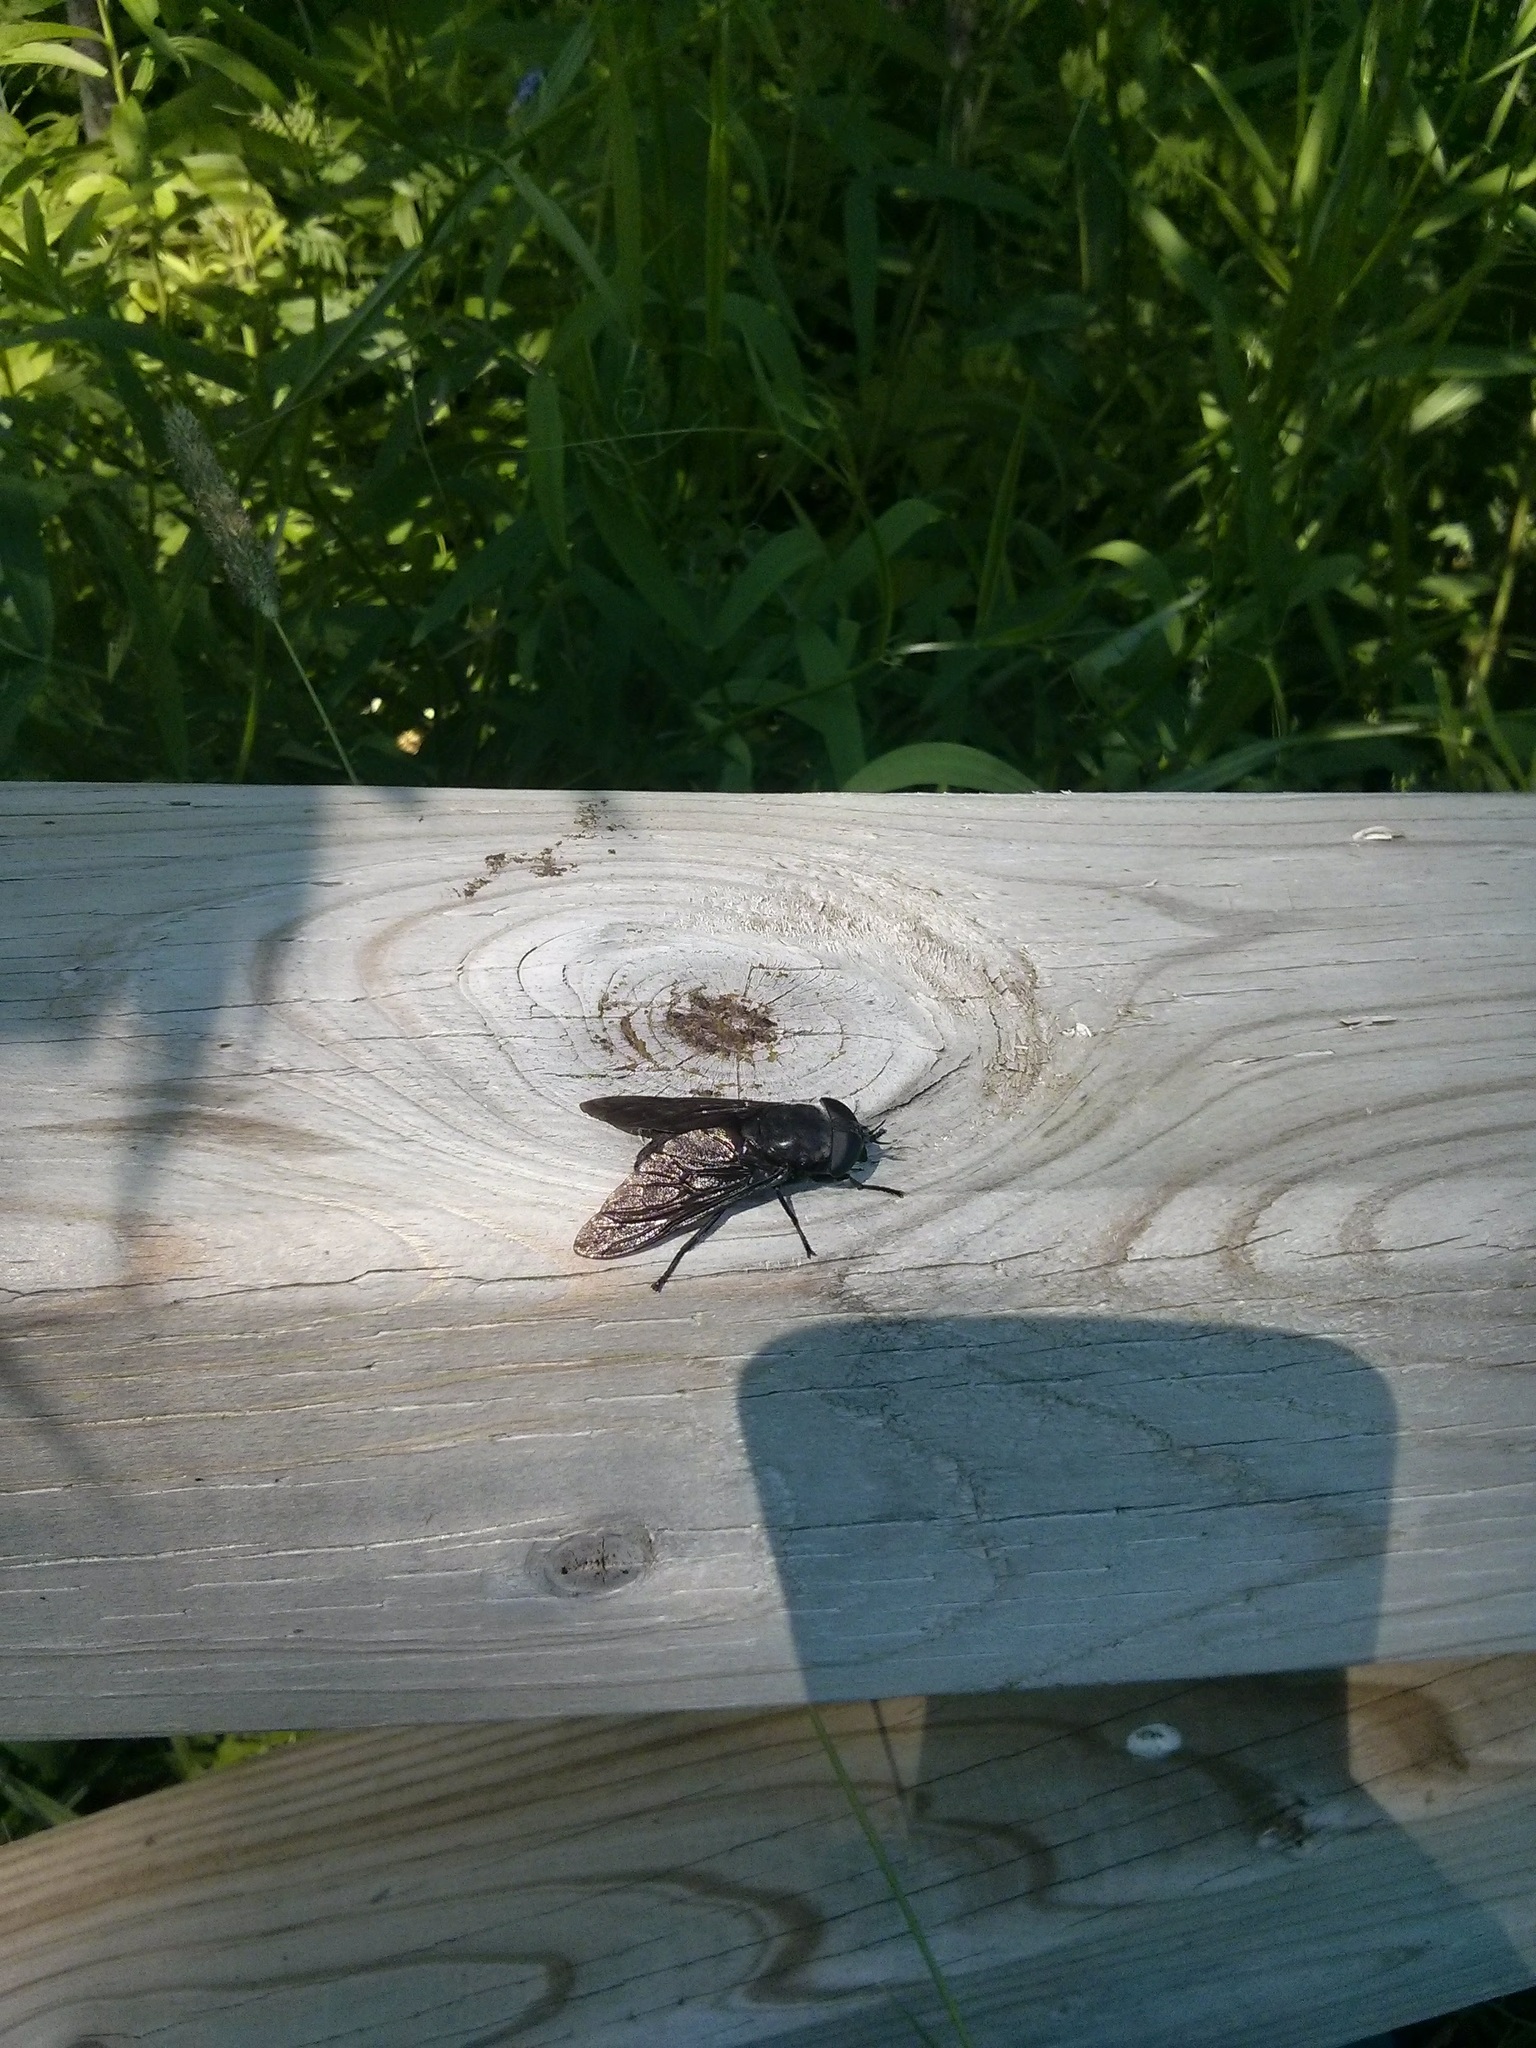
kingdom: Animalia
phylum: Arthropoda
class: Insecta
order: Diptera
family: Tabanidae
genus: Tabanus
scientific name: Tabanus atratus
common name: Black horse fly
